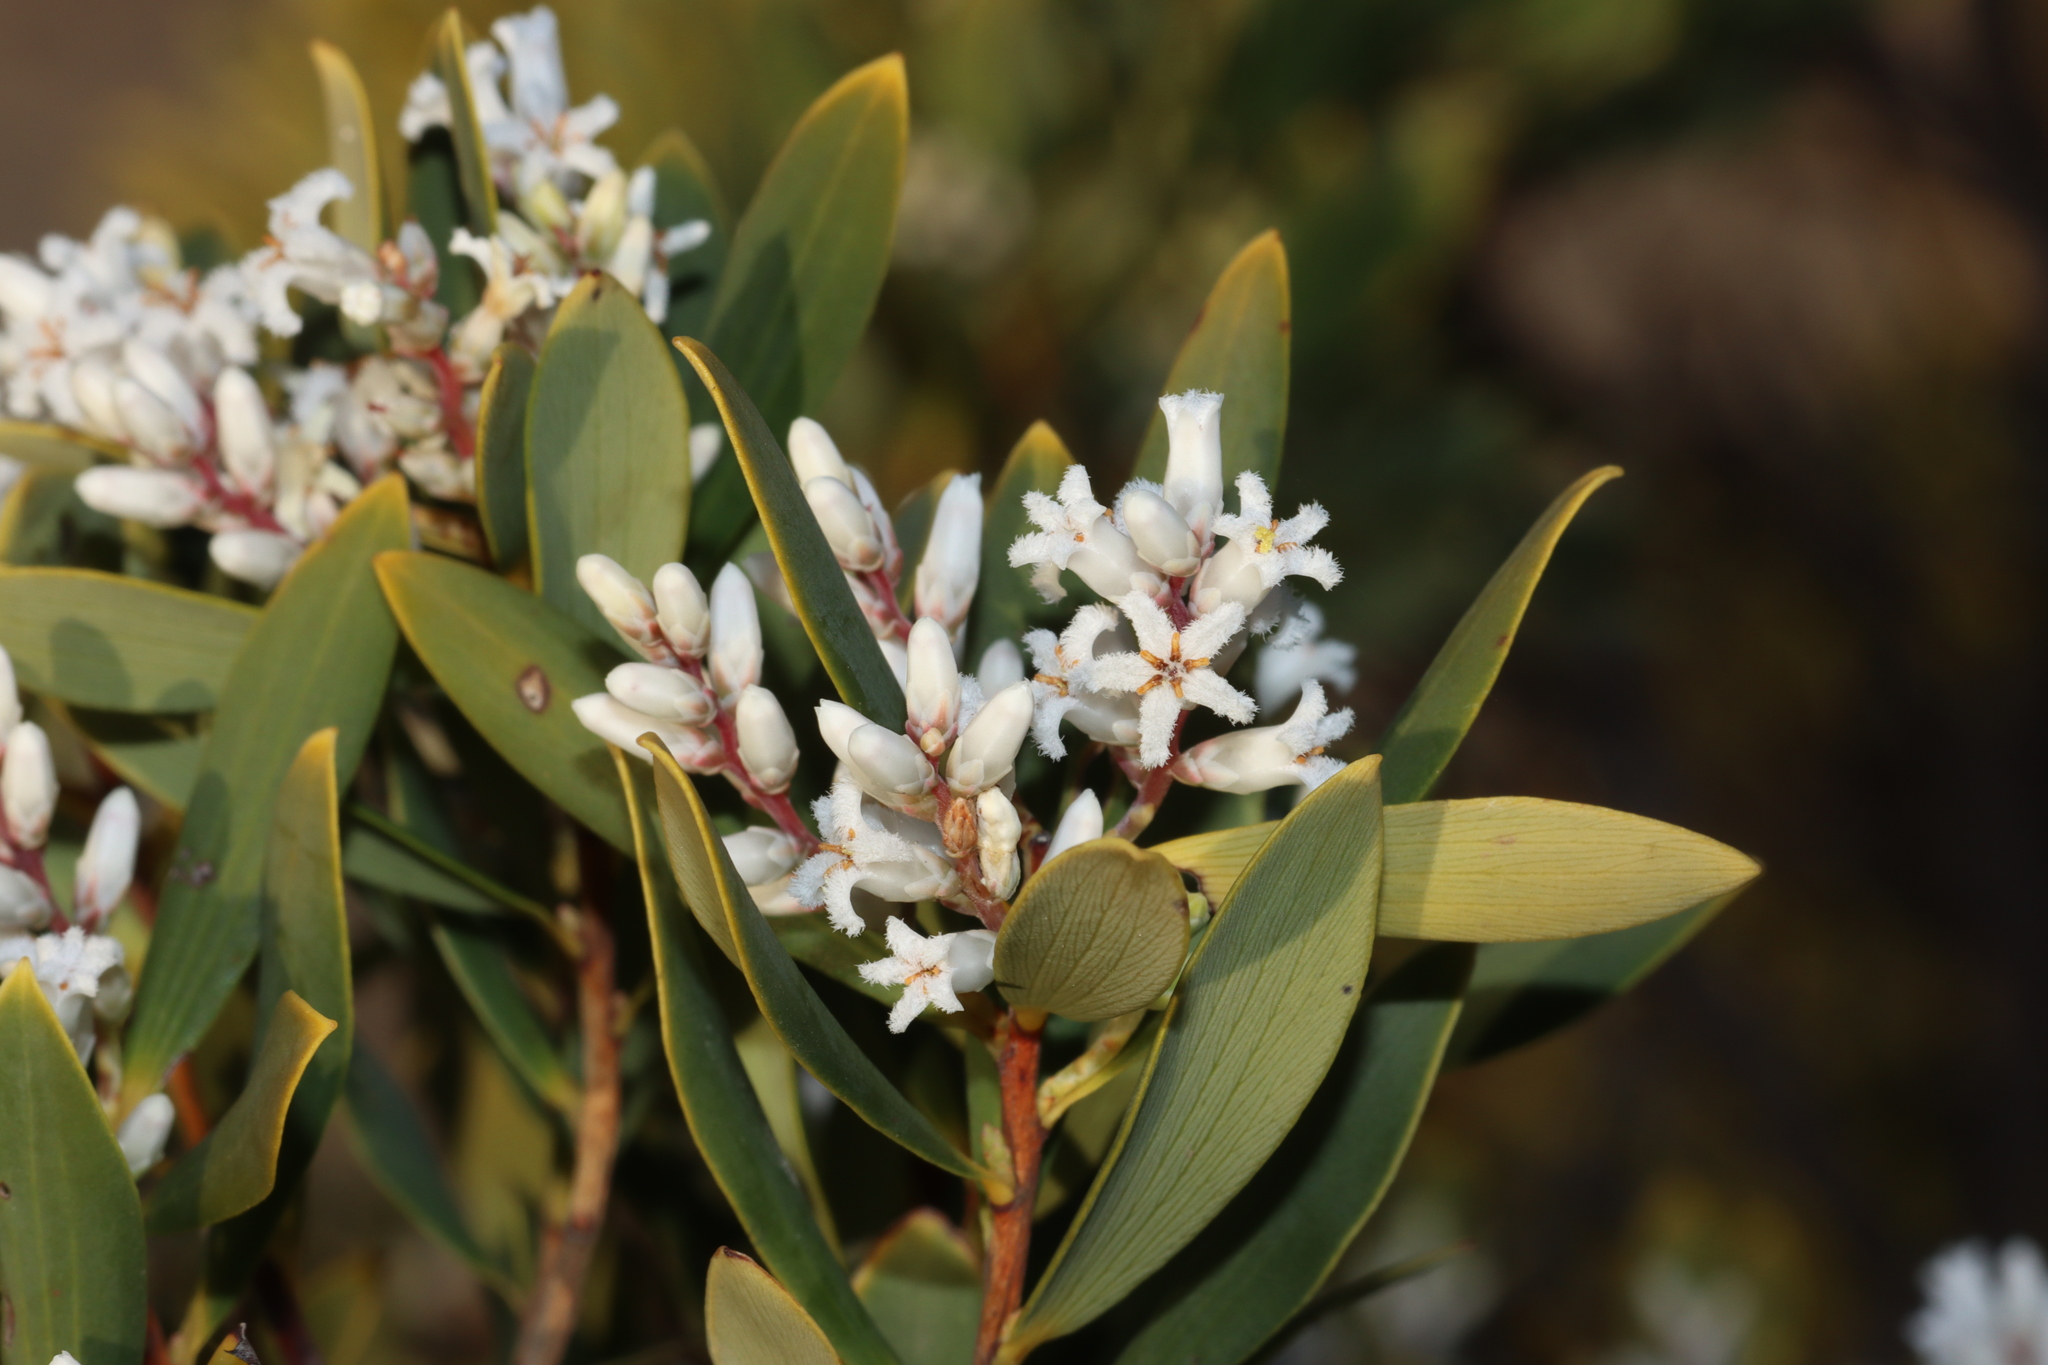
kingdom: Plantae
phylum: Tracheophyta
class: Magnoliopsida
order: Ericales
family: Ericaceae
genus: Leptecophylla
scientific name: Leptecophylla parvifolia
